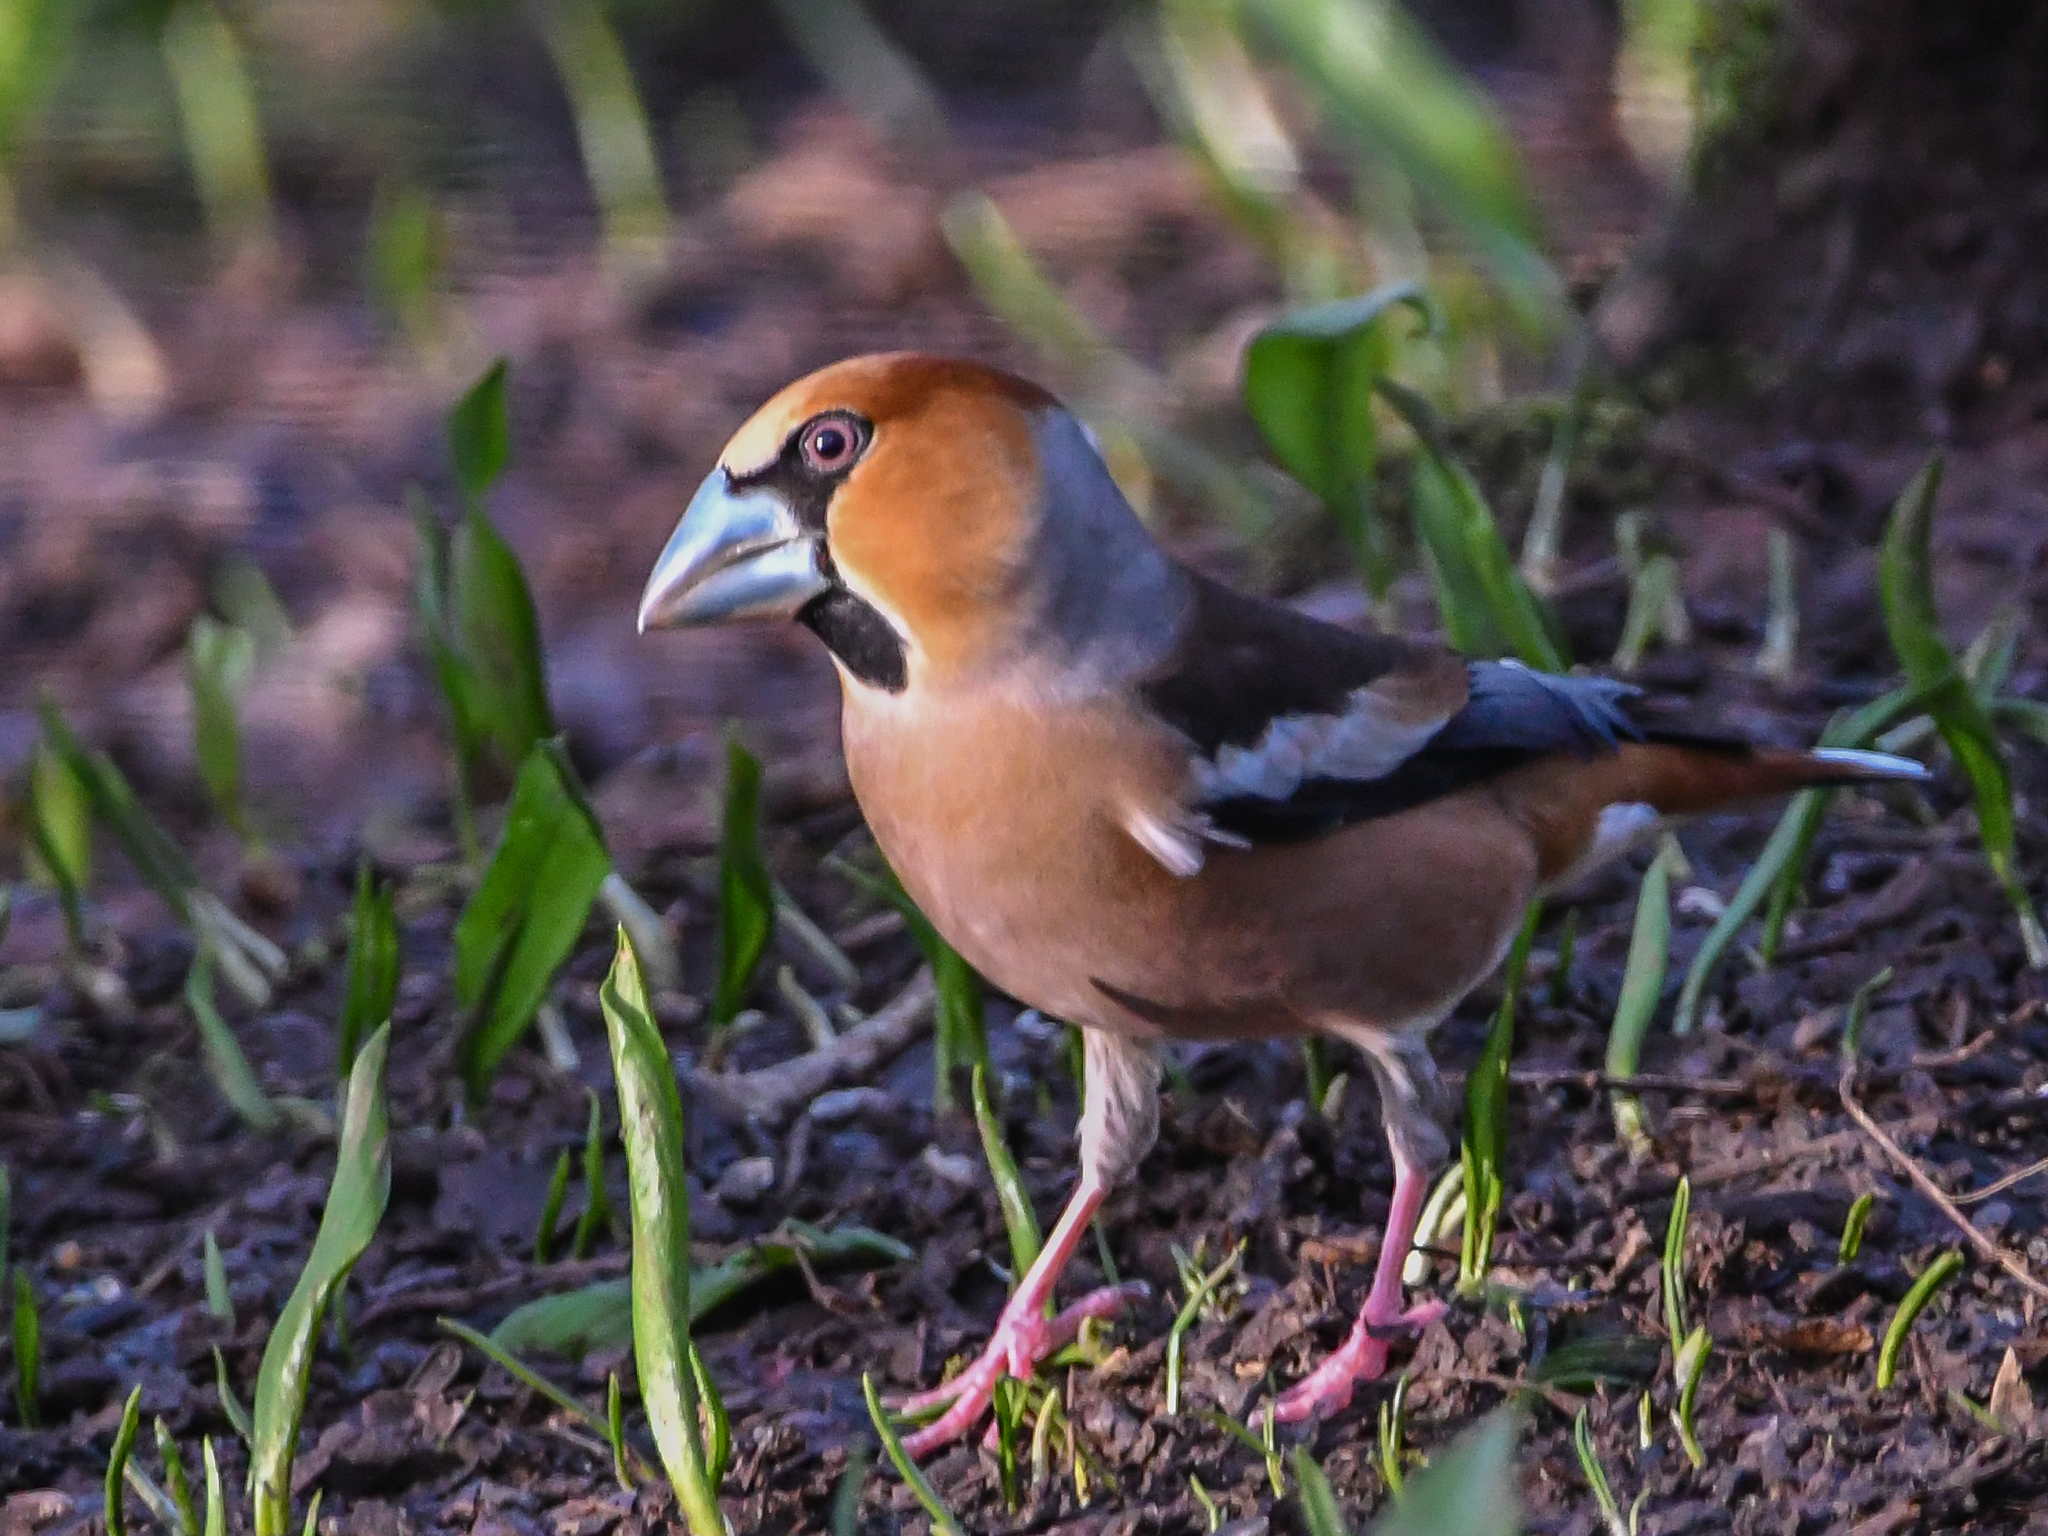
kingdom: Animalia
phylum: Chordata
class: Aves
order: Passeriformes
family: Fringillidae
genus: Coccothraustes
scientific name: Coccothraustes coccothraustes
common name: Hawfinch
